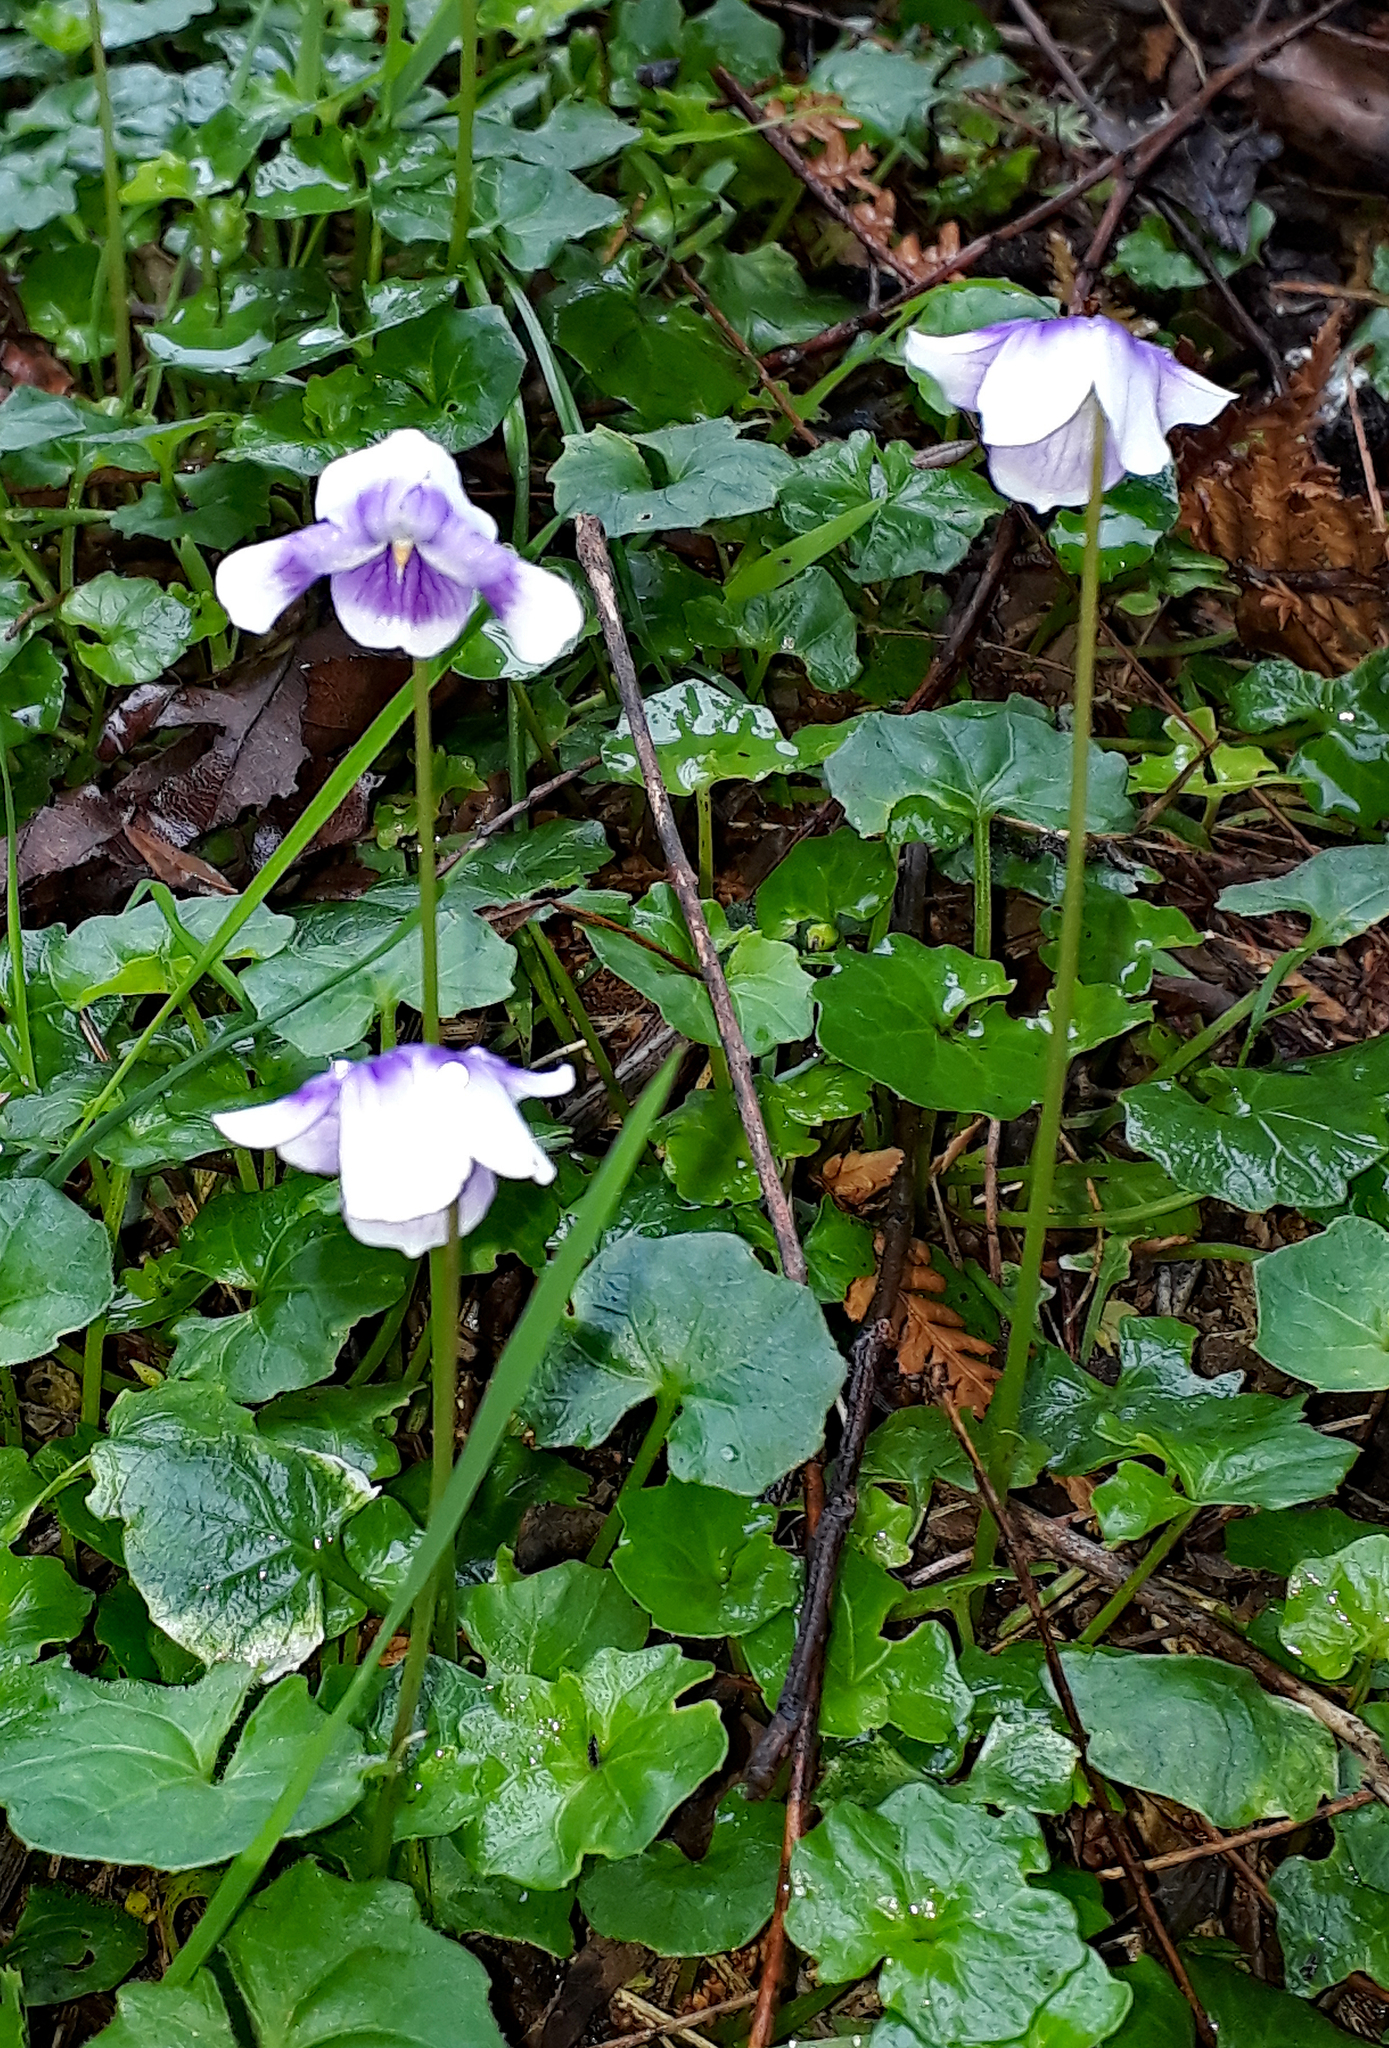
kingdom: Plantae
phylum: Tracheophyta
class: Magnoliopsida
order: Malpighiales
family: Violaceae
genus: Viola
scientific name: Viola banksii
